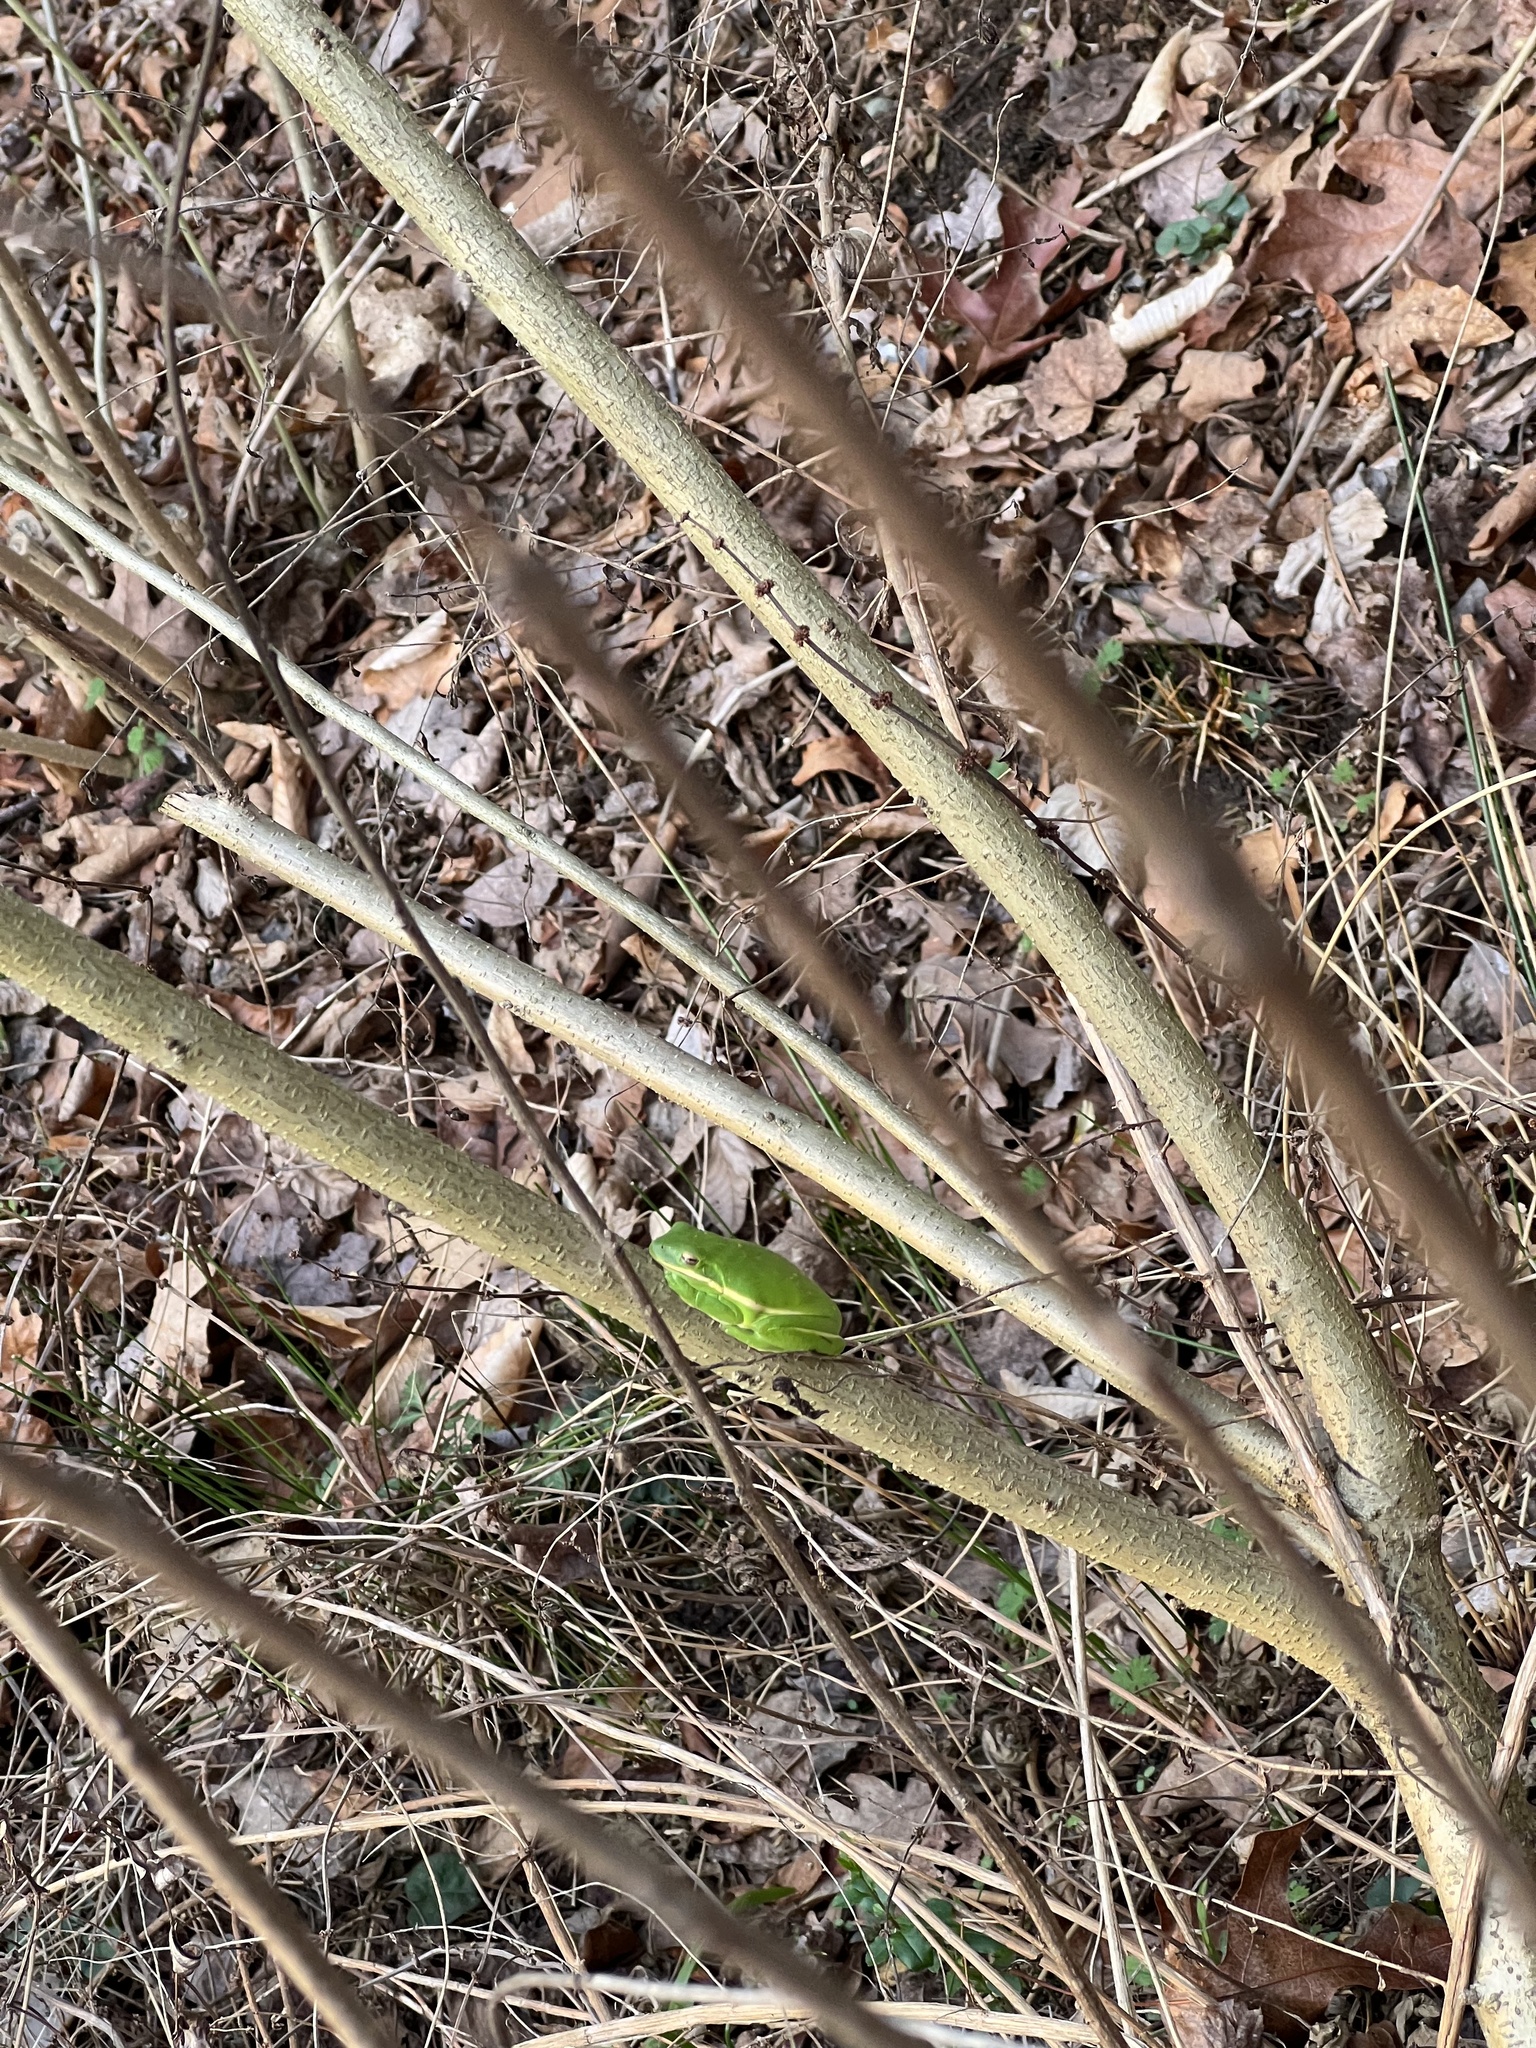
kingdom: Animalia
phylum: Chordata
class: Amphibia
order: Anura
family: Hylidae
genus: Dryophytes
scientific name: Dryophytes cinereus
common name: Green treefrog
